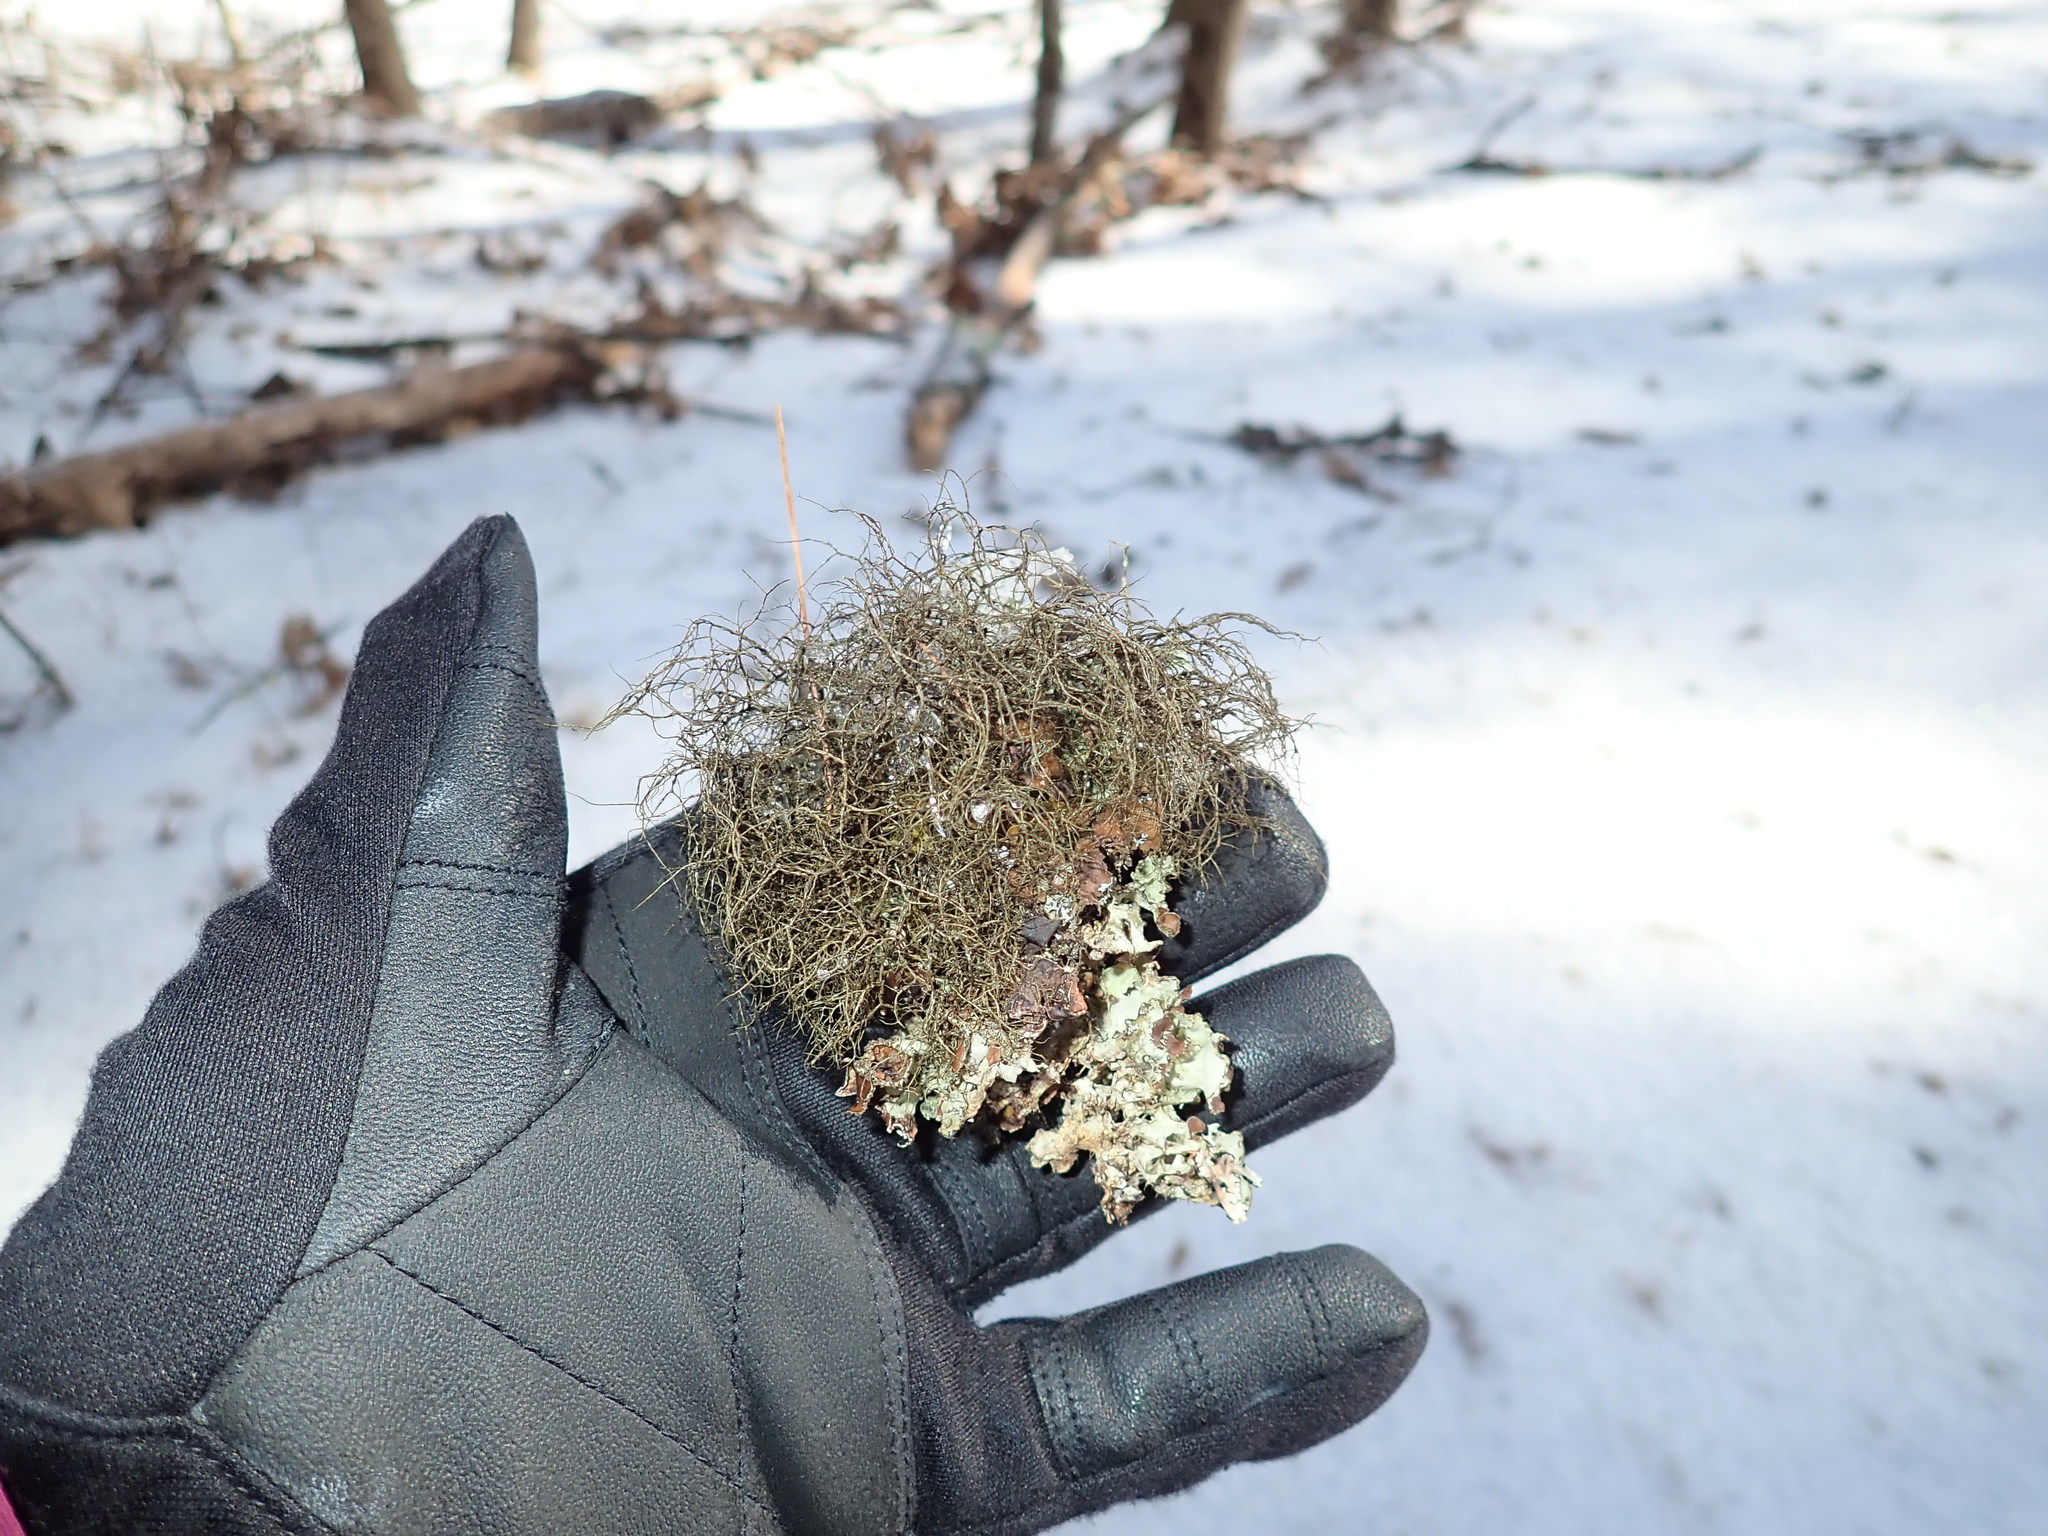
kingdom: Fungi
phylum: Ascomycota
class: Lecanoromycetes
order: Lecanorales
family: Parmeliaceae
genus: Bryoria
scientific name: Bryoria
